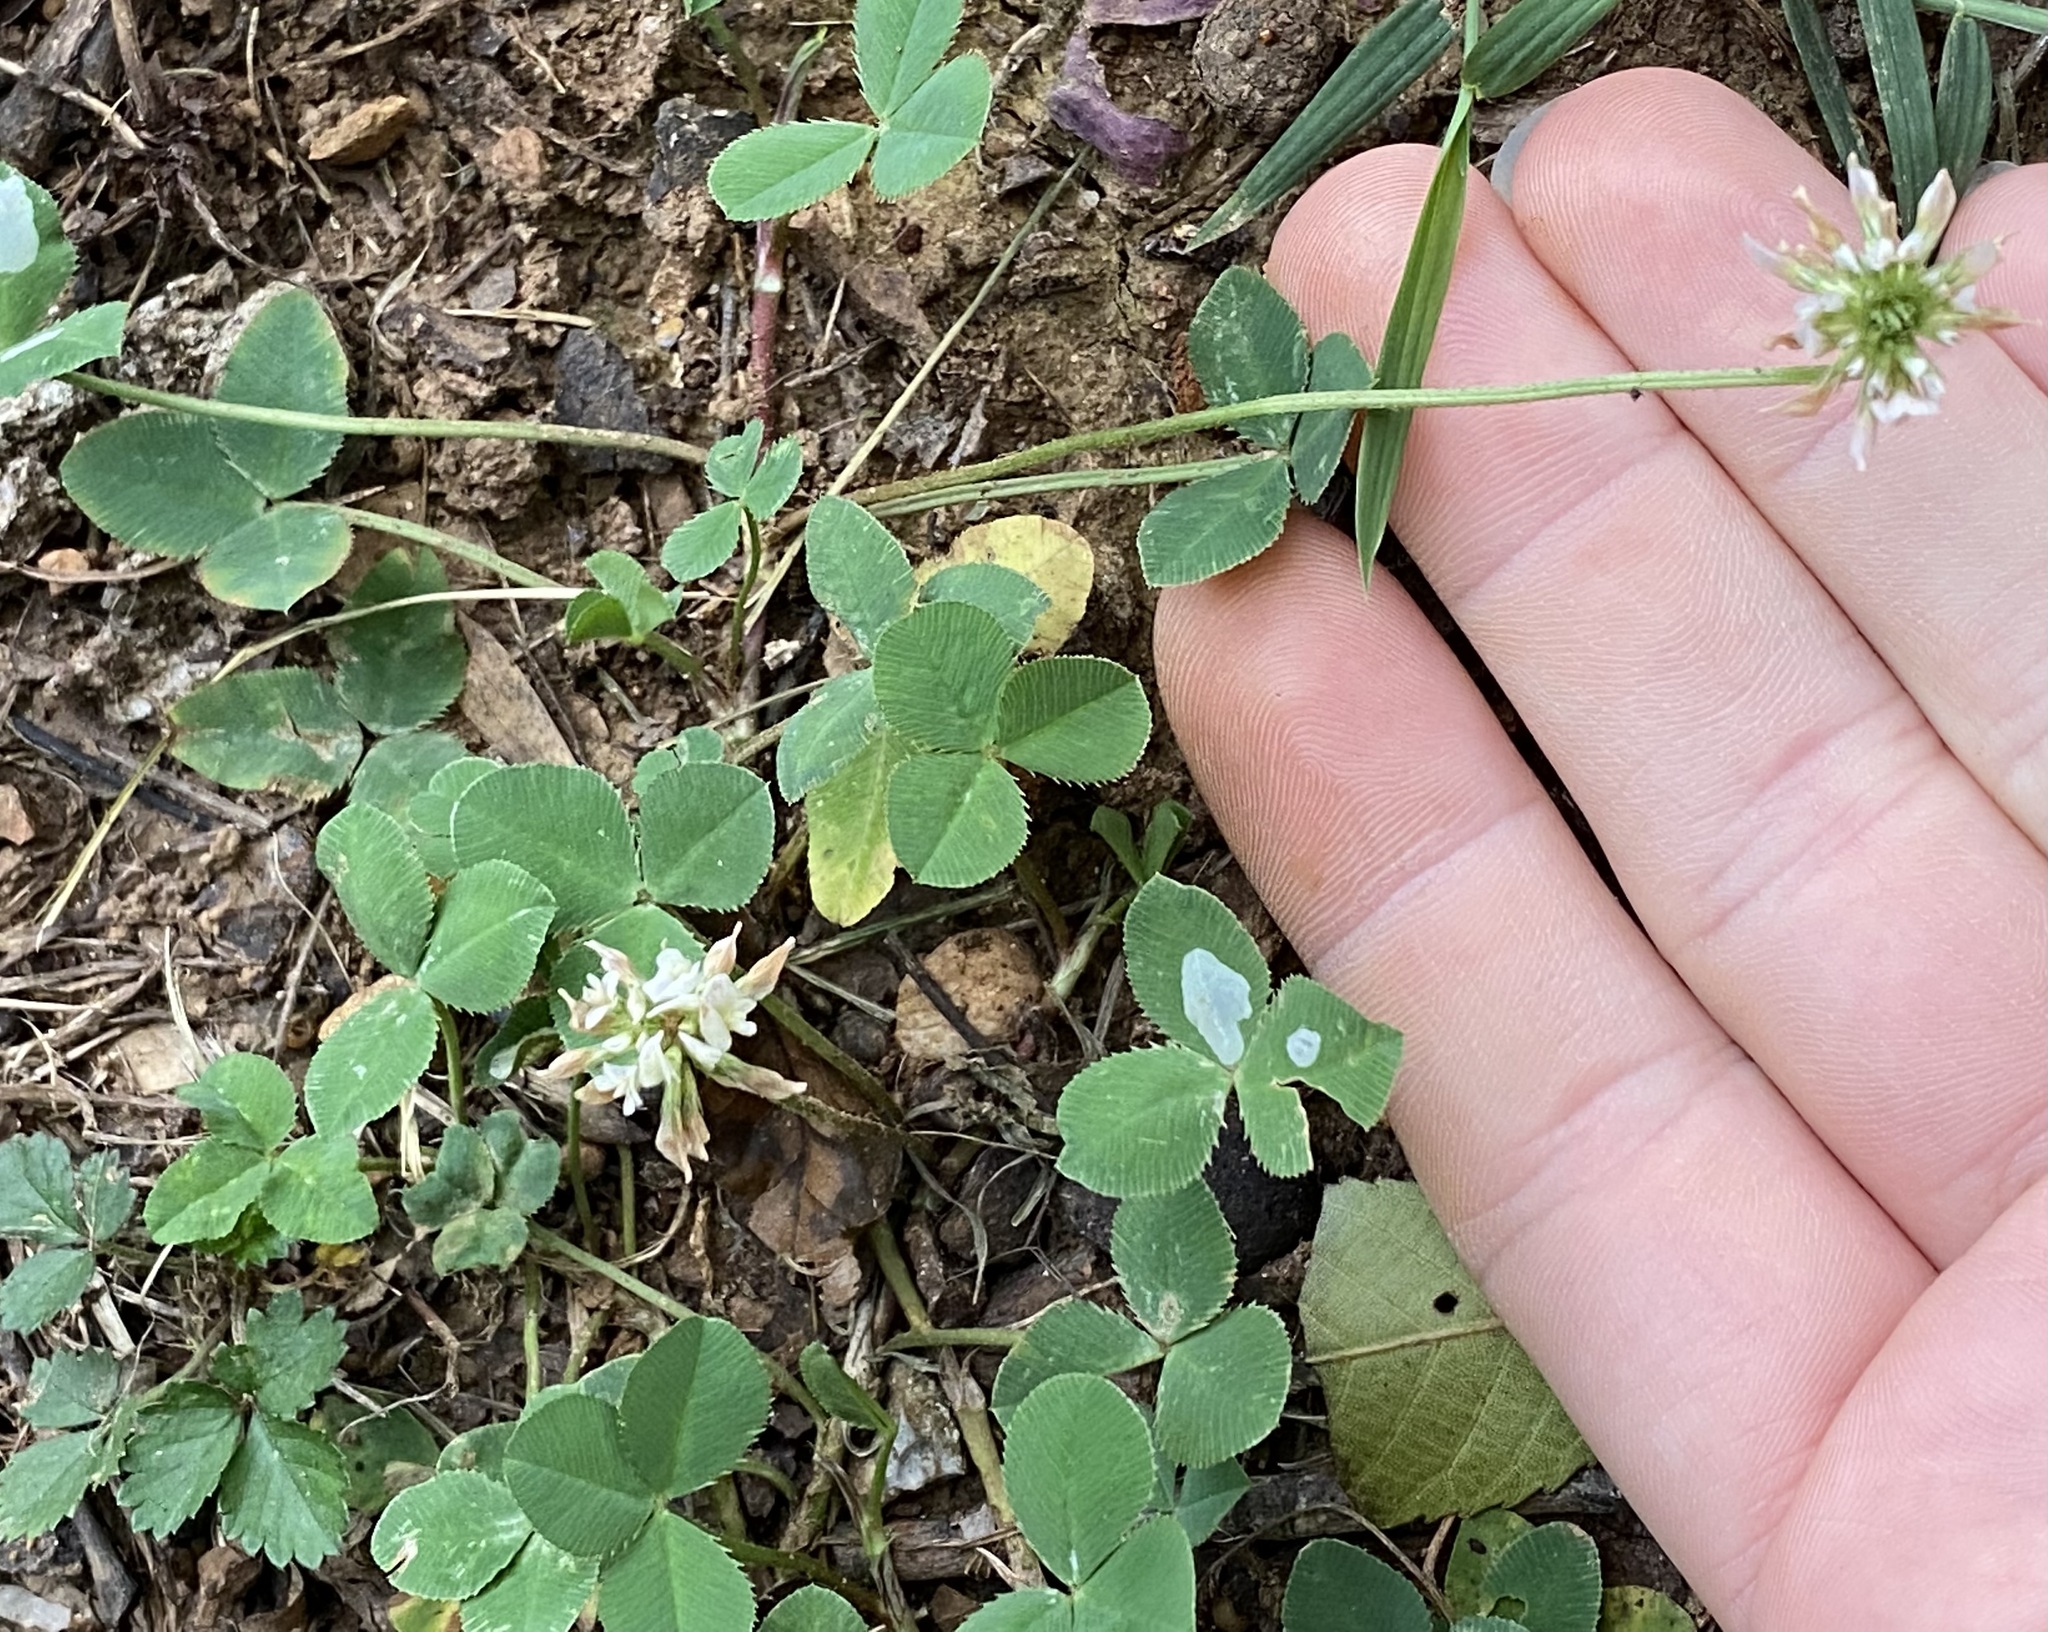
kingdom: Plantae
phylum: Tracheophyta
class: Magnoliopsida
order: Fabales
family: Fabaceae
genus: Trifolium
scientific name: Trifolium repens
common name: White clover
